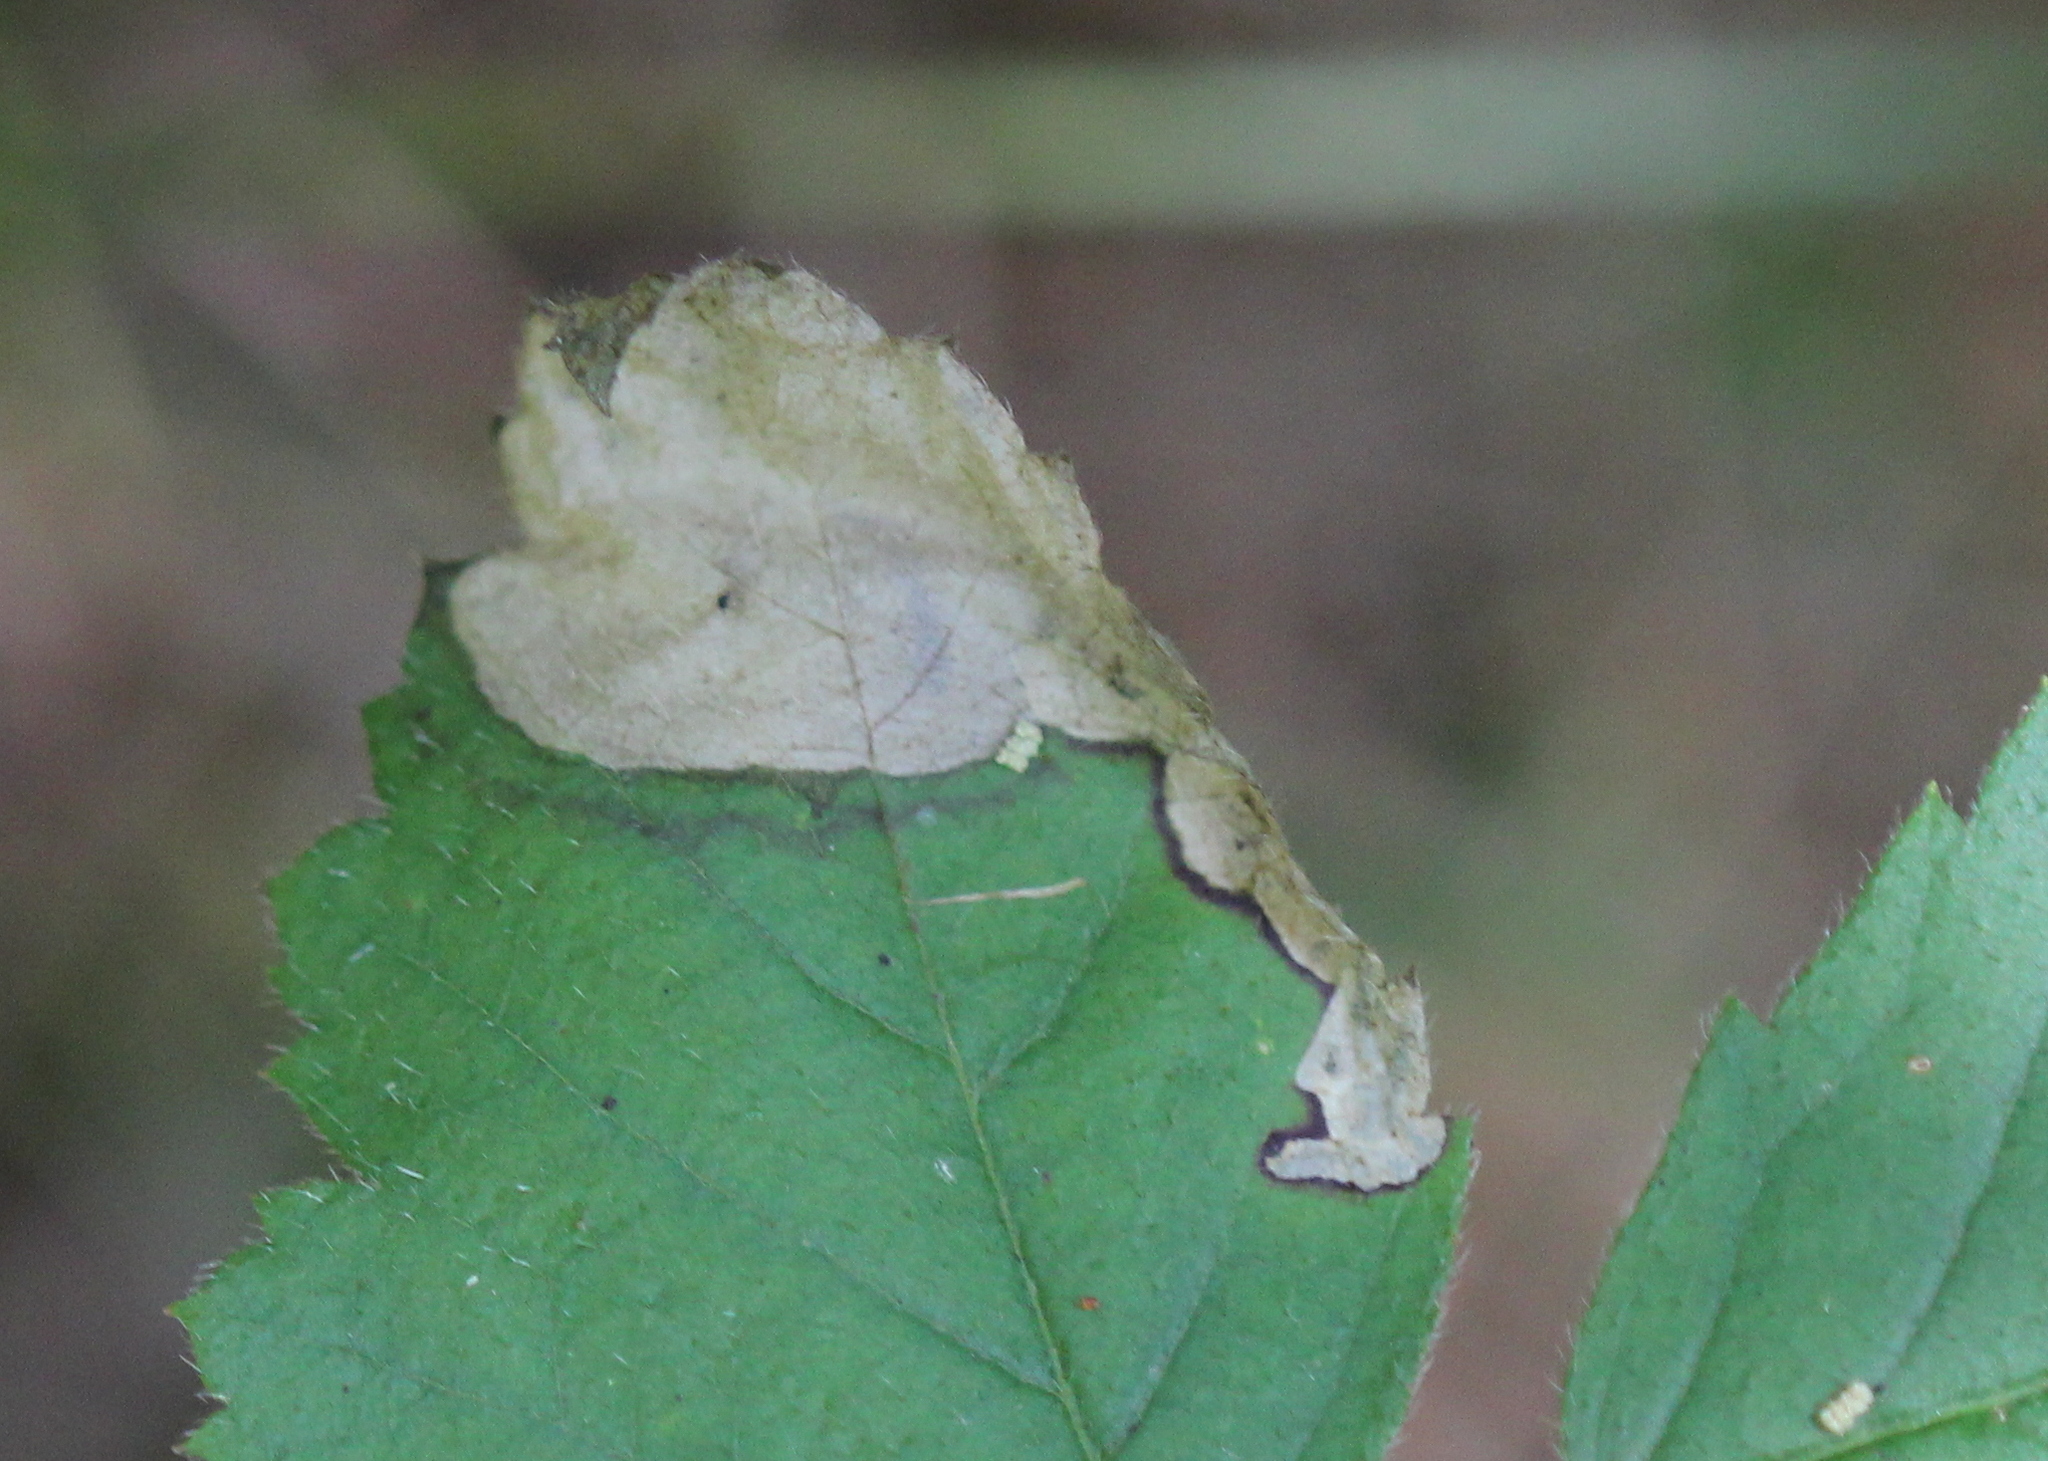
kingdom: Animalia
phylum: Arthropoda
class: Insecta
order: Hymenoptera
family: Tenthredinidae
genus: Metallus
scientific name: Metallus rohweri
